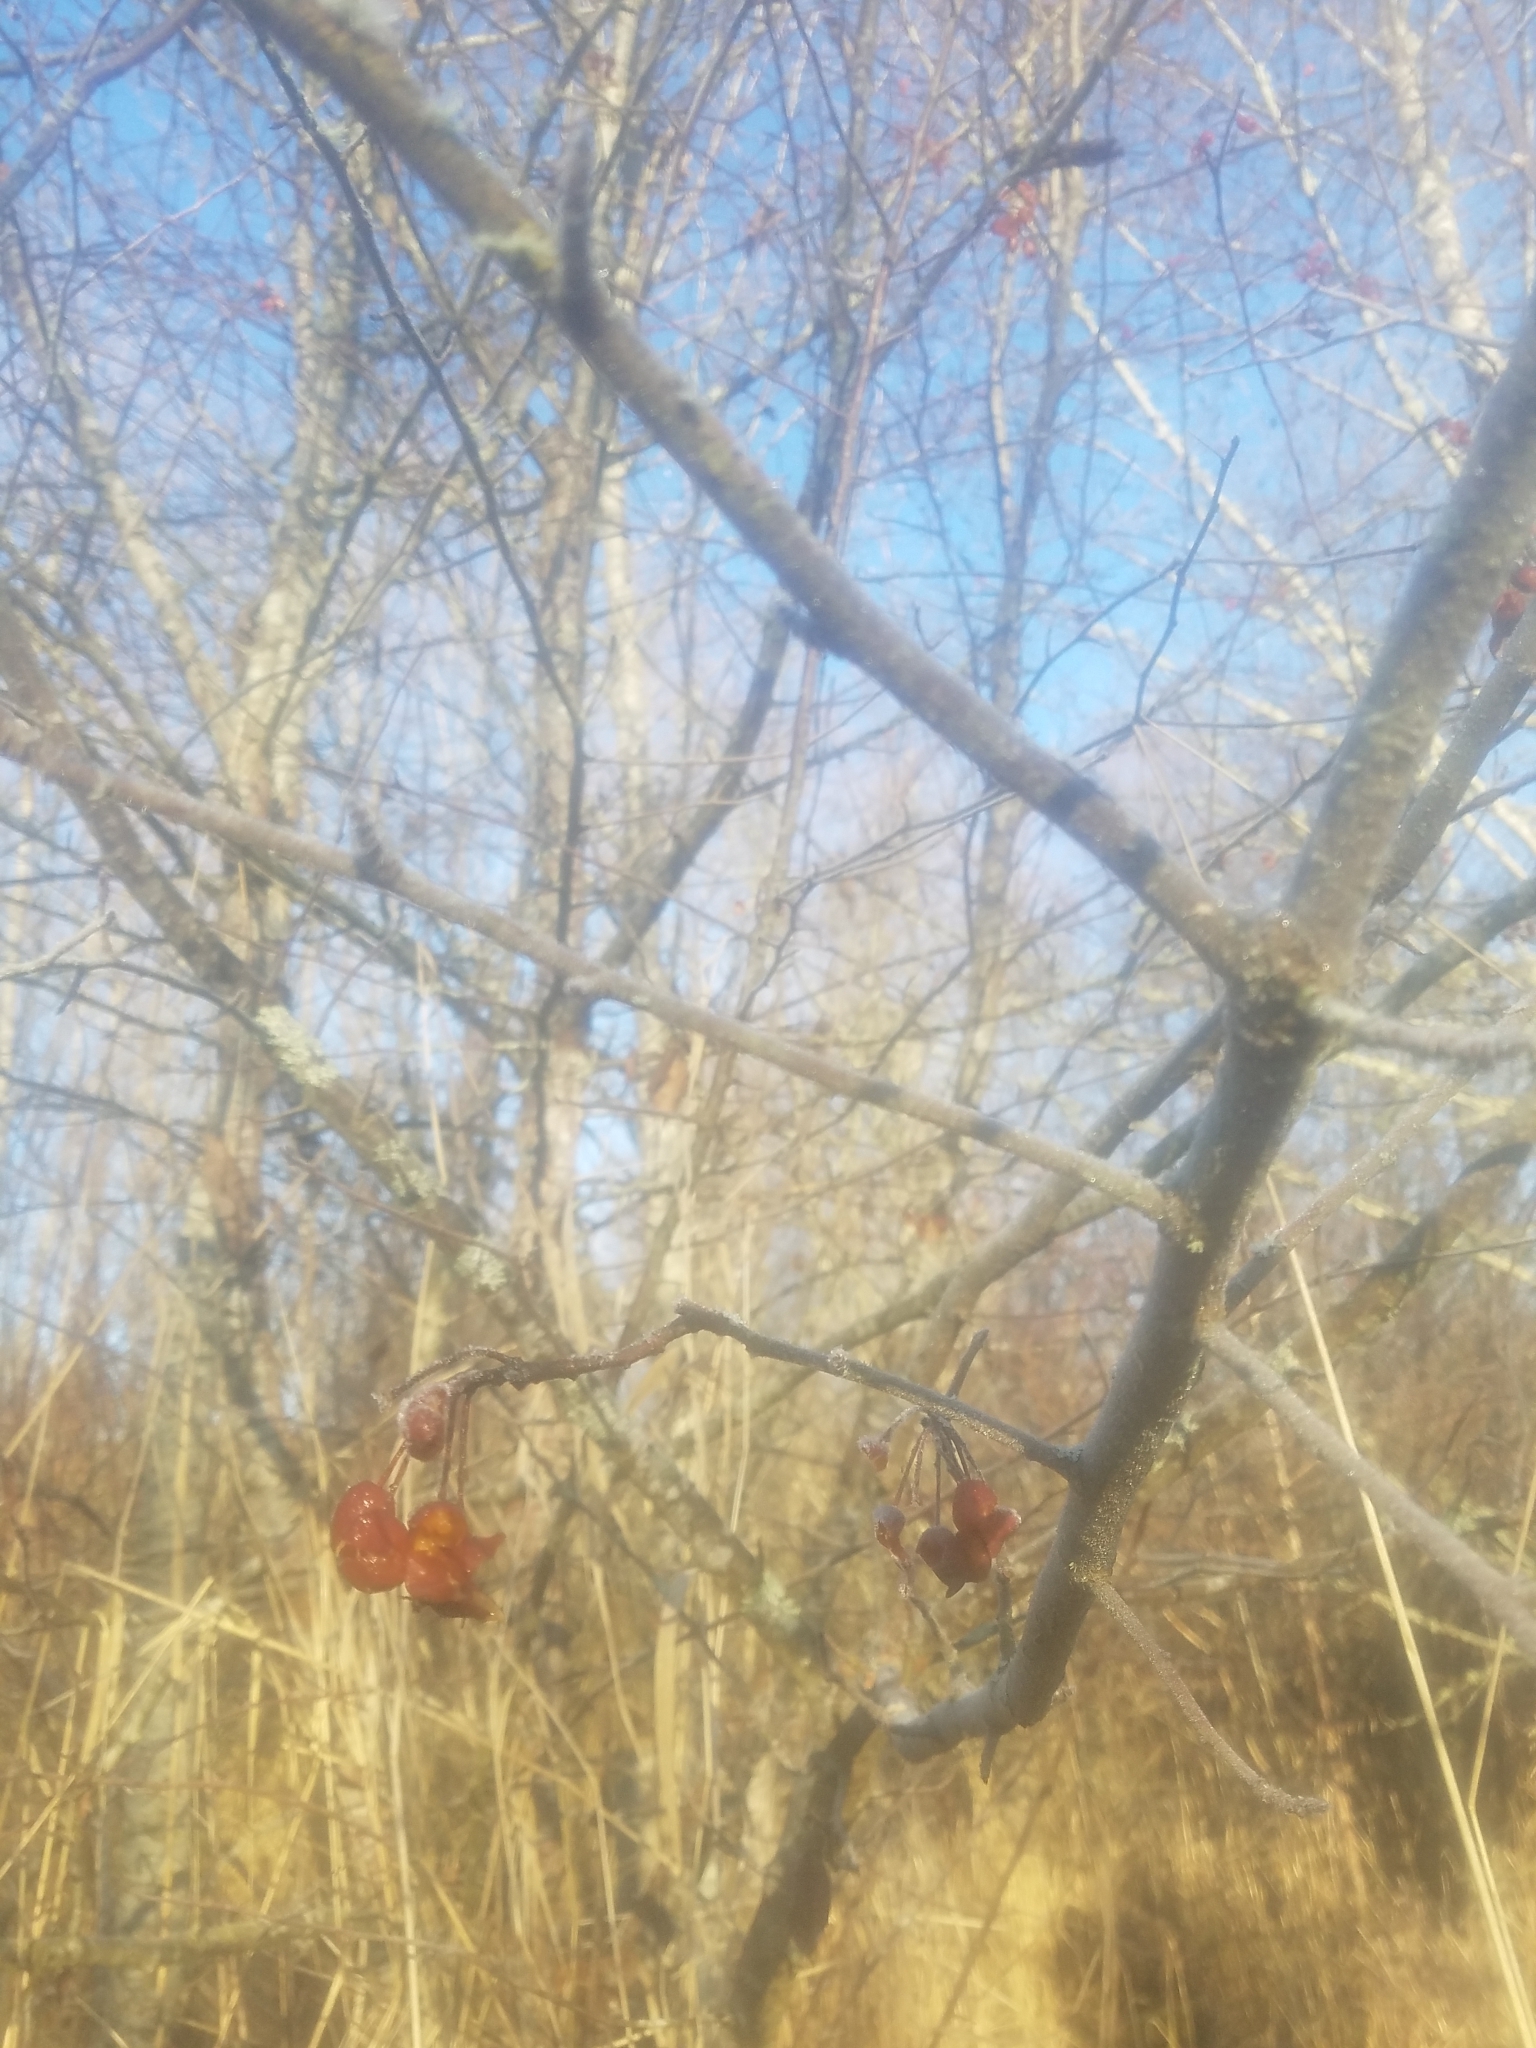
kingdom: Plantae
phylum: Tracheophyta
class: Magnoliopsida
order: Rosales
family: Rosaceae
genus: Malus
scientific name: Malus fusca
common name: Oregon crab apple
